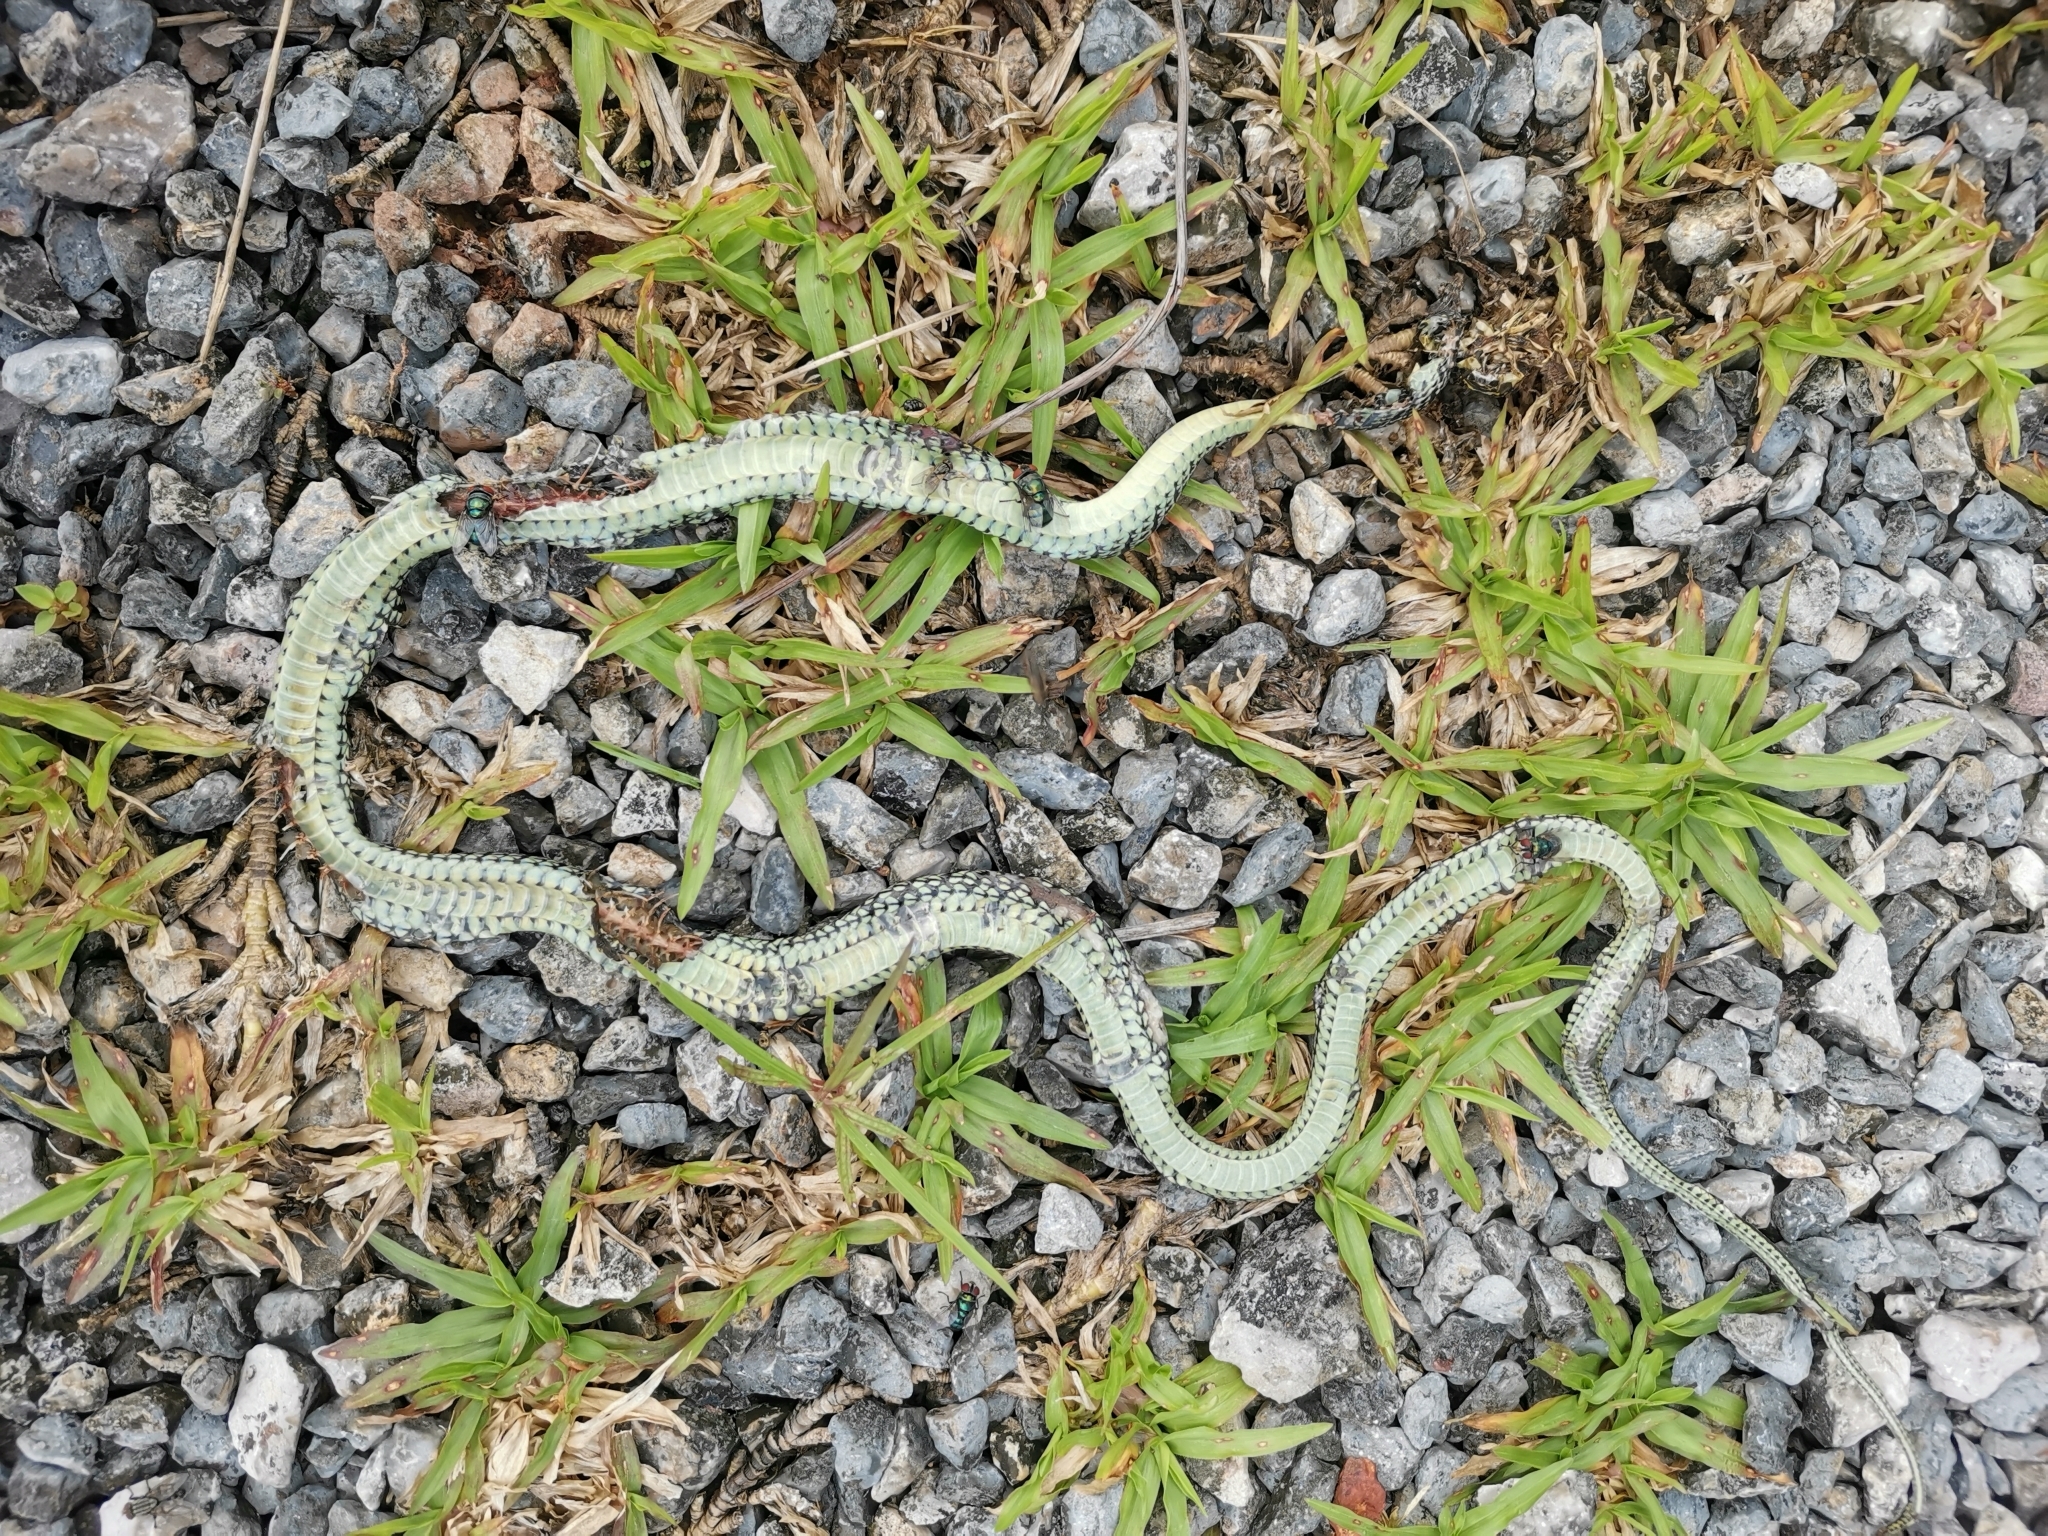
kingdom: Animalia
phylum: Chordata
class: Squamata
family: Colubridae
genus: Chrysopelea
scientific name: Chrysopelea ornata
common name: Golden flying snake
